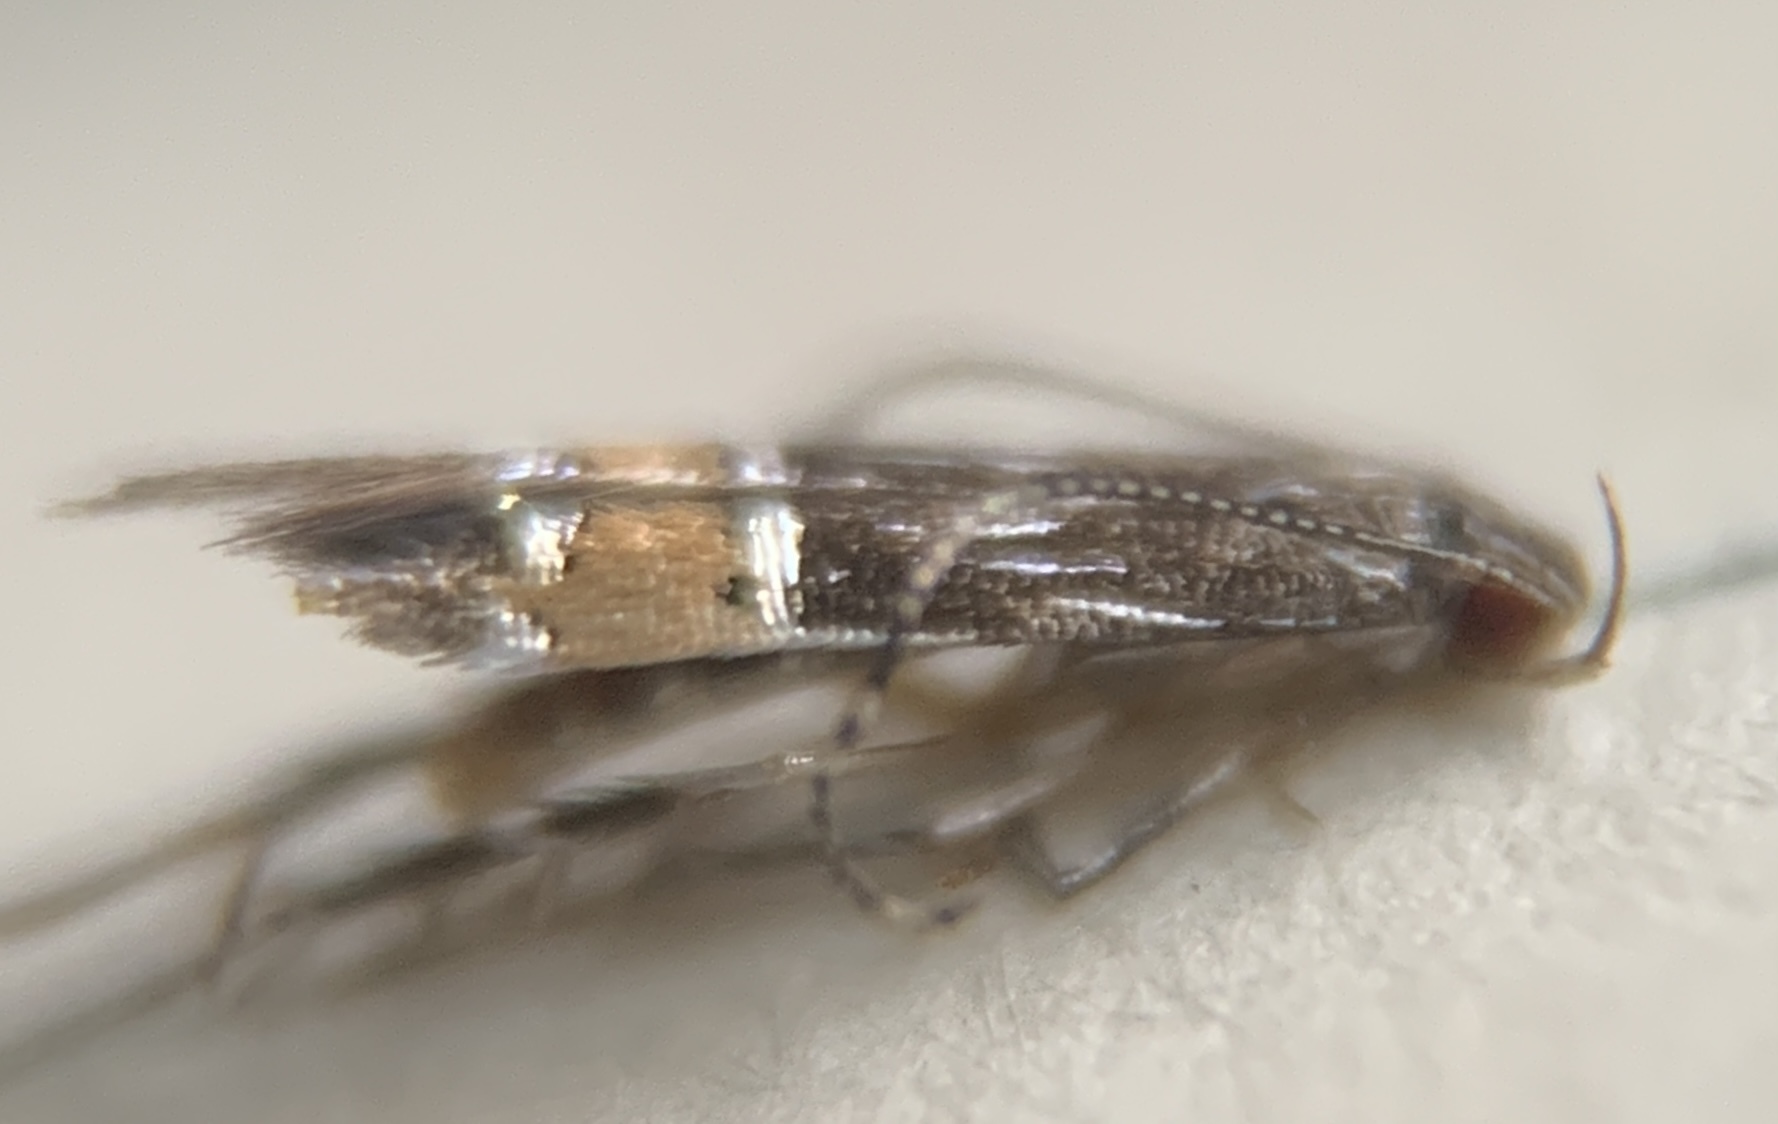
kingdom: Animalia
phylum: Arthropoda
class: Insecta
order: Lepidoptera
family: Cosmopterigidae
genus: Cosmopterix
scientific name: Cosmopterix attenuatella
